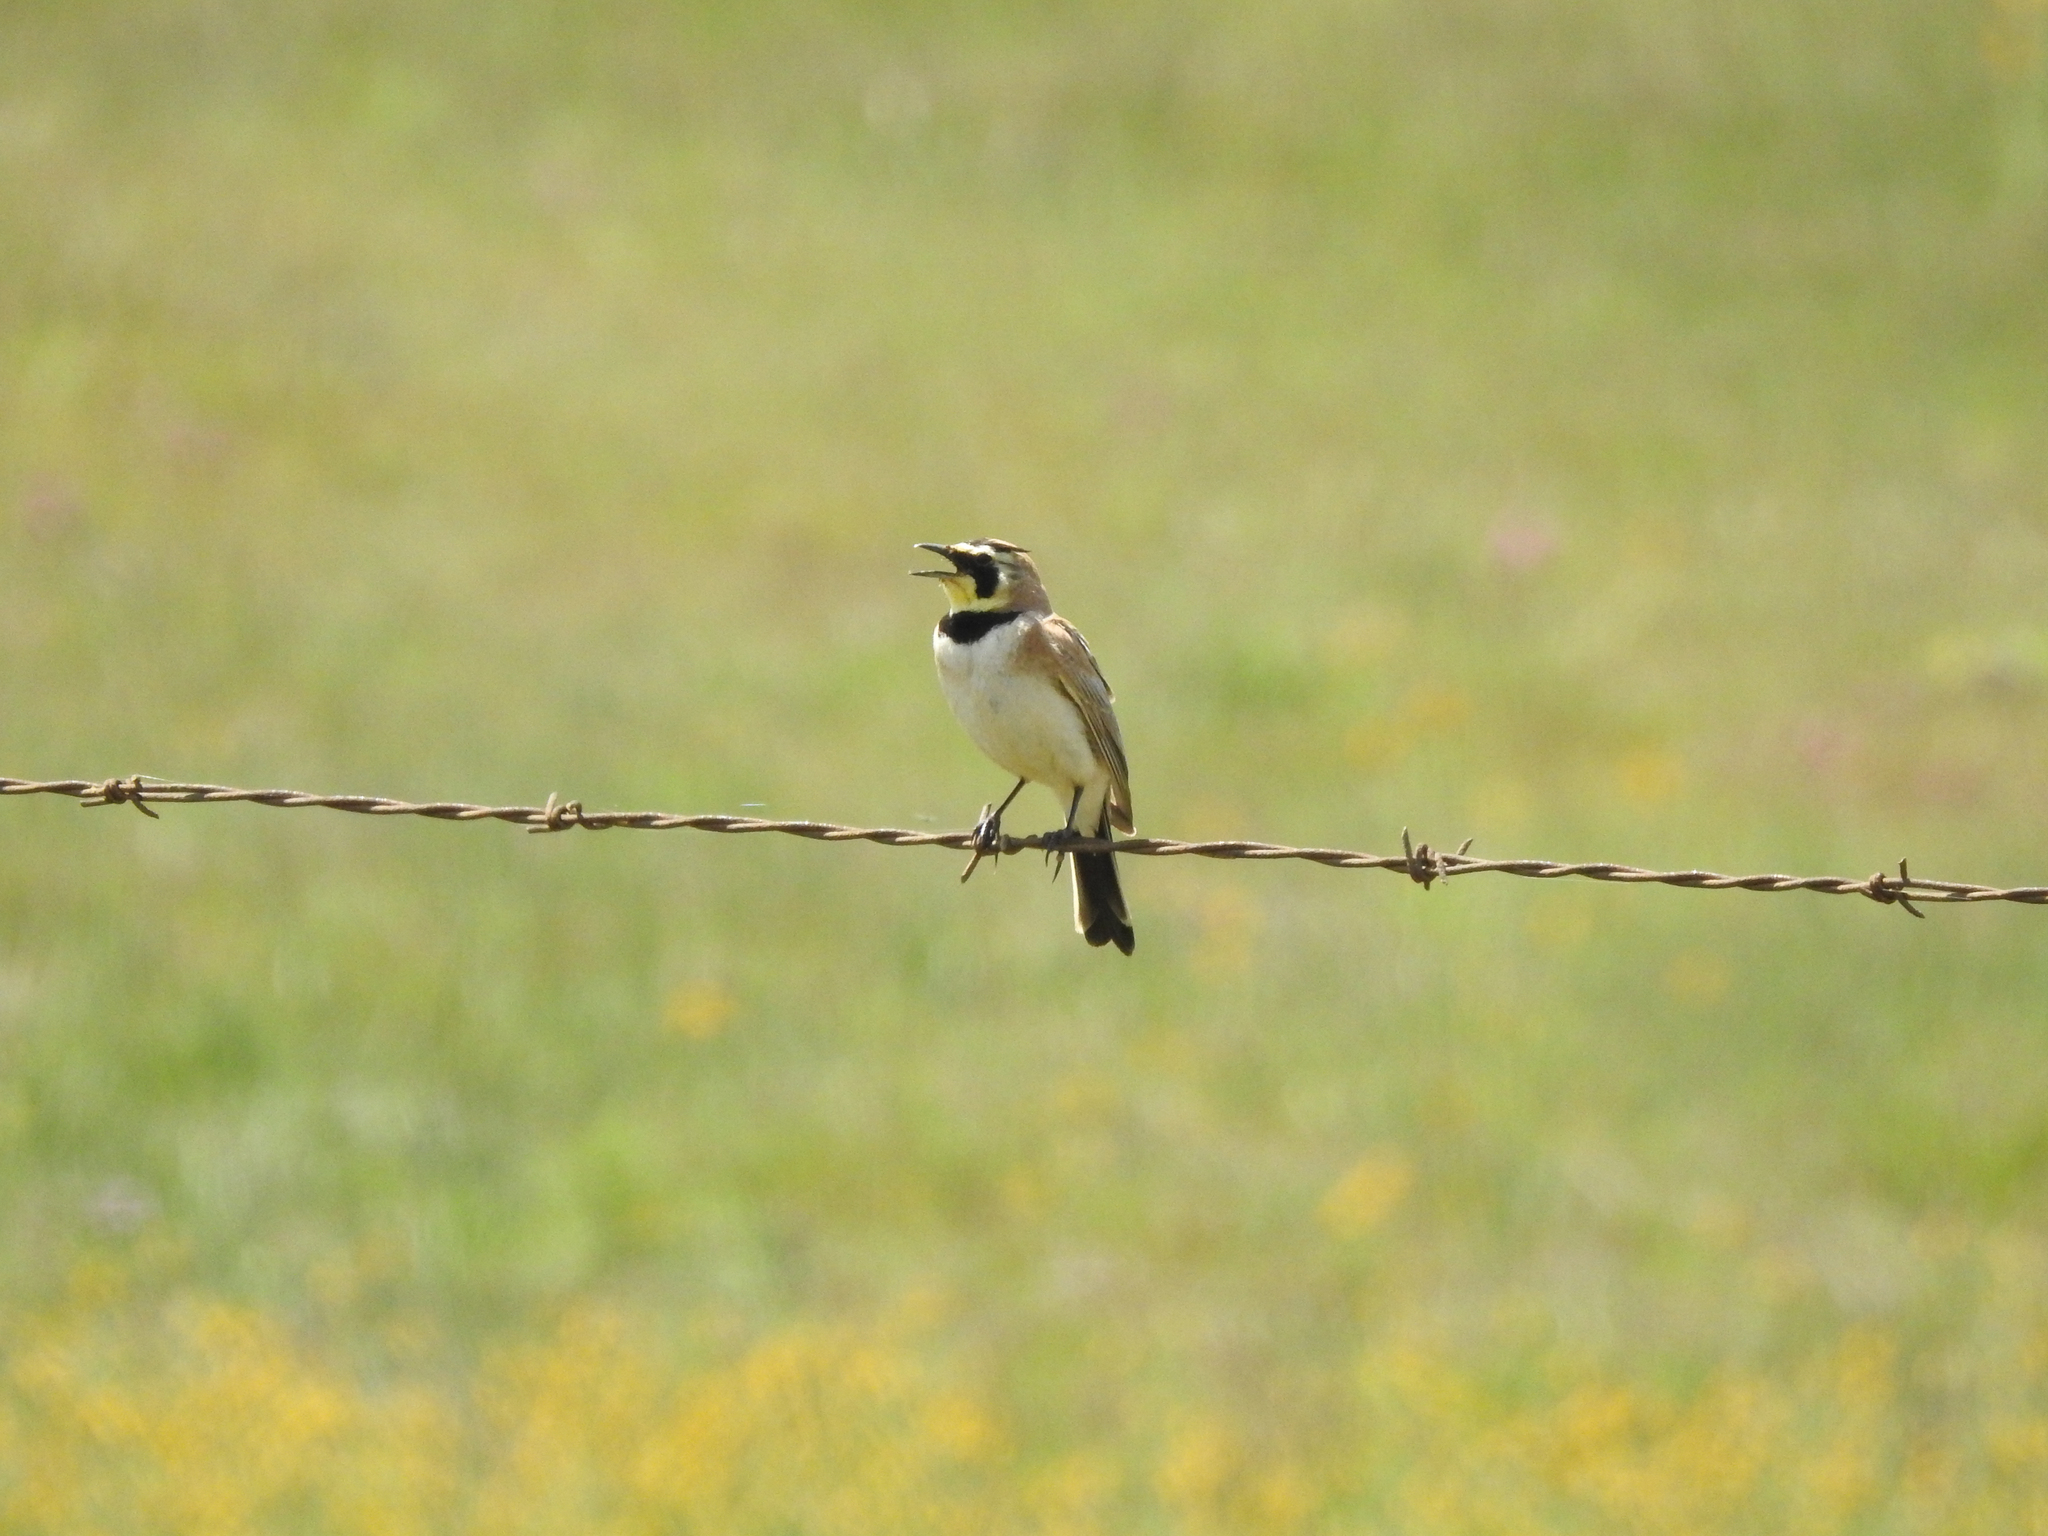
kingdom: Animalia
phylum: Chordata
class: Aves
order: Passeriformes
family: Alaudidae
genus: Eremophila
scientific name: Eremophila alpestris
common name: Horned lark
